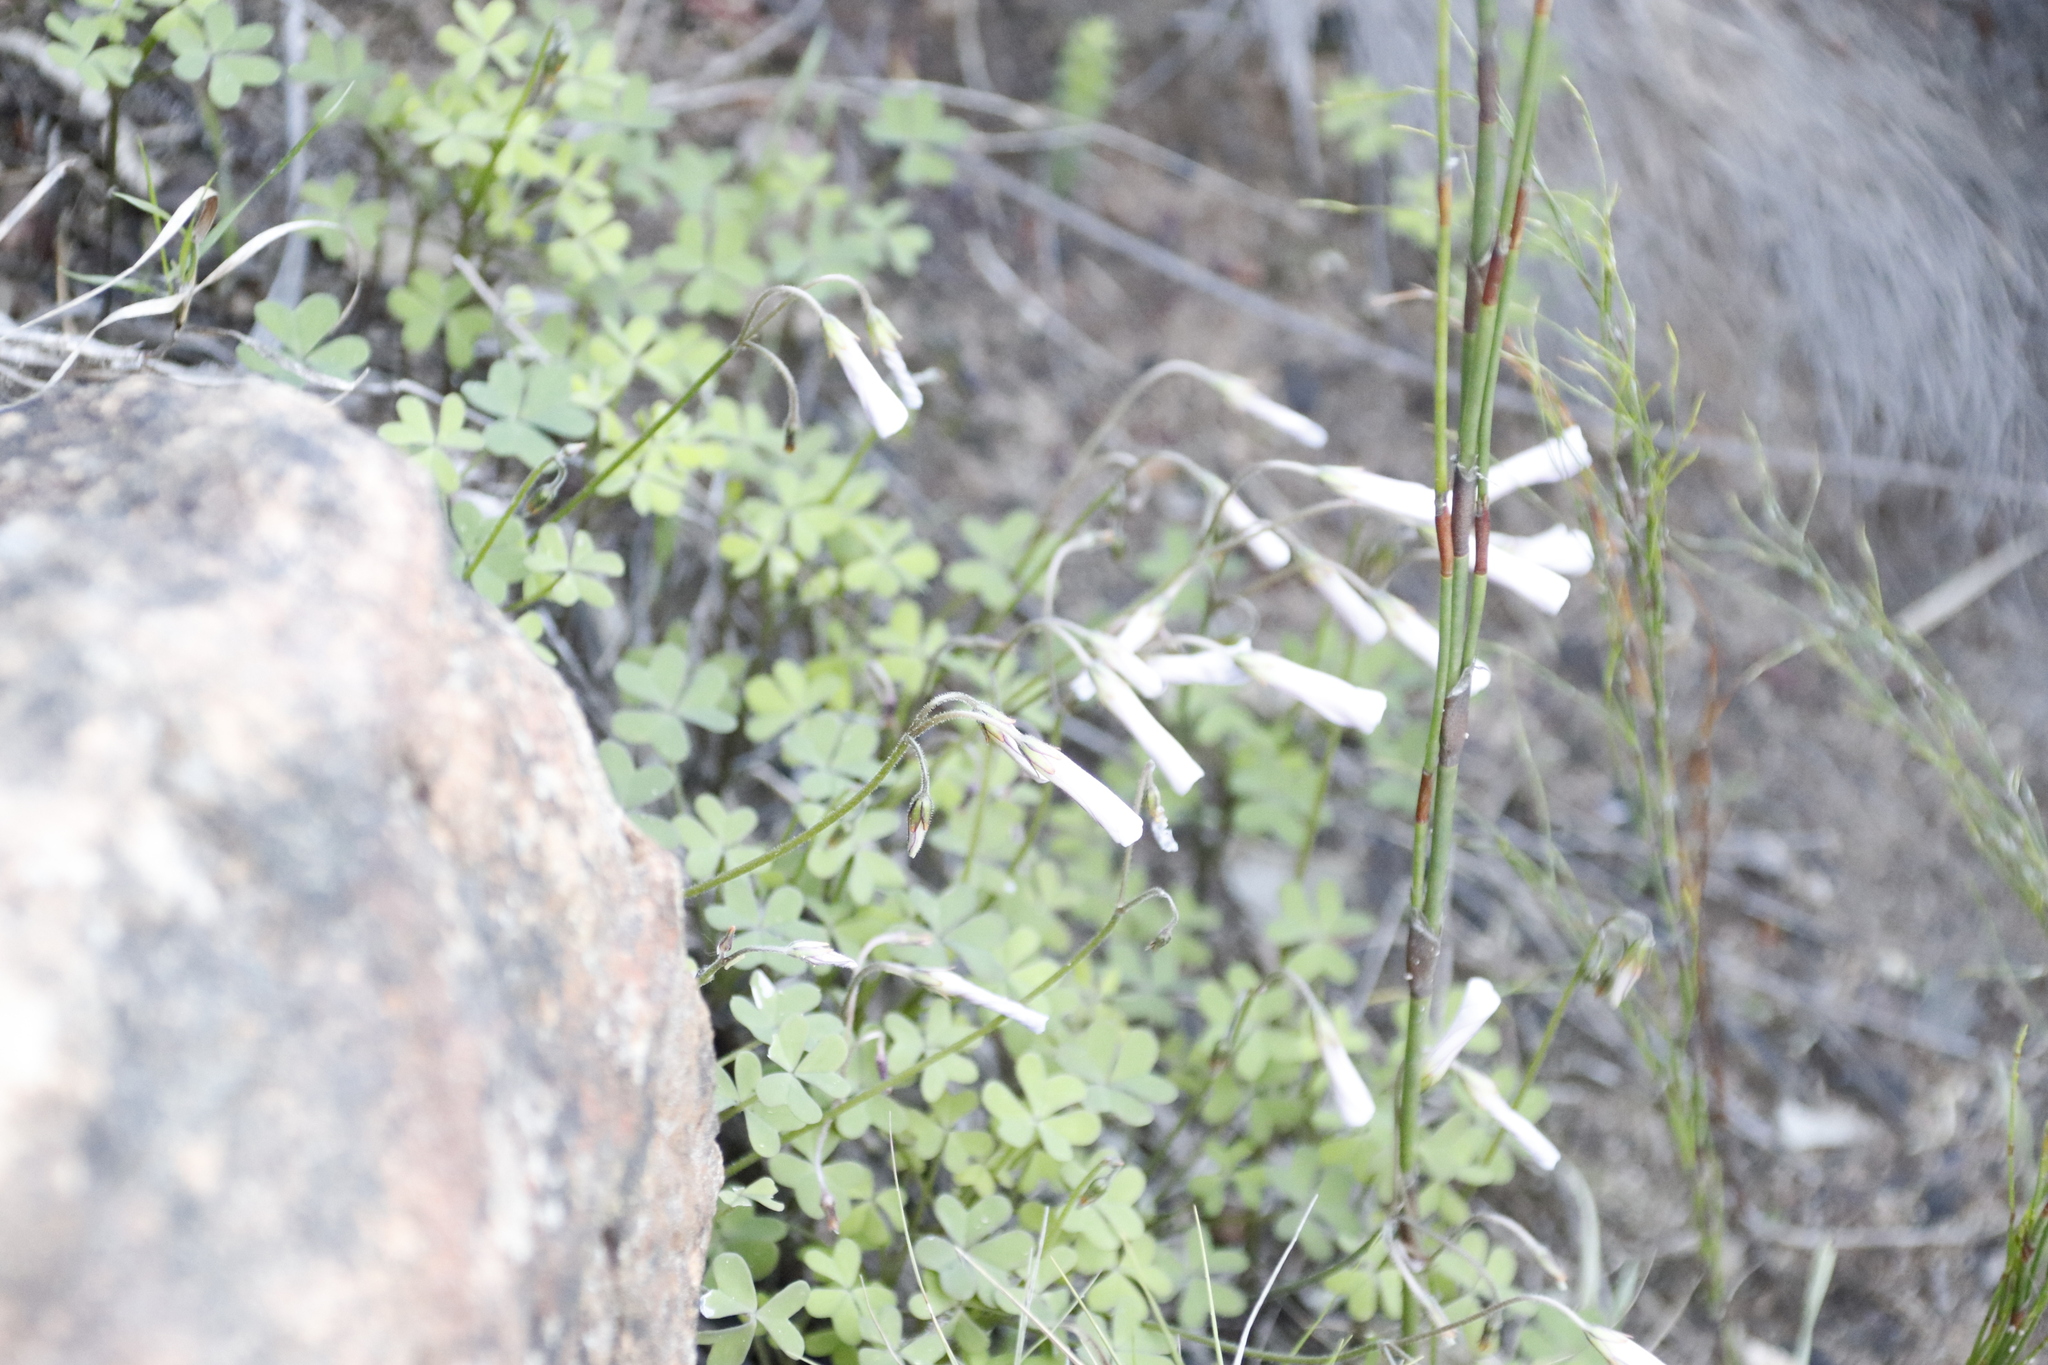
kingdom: Plantae
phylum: Tracheophyta
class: Magnoliopsida
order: Oxalidales
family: Oxalidaceae
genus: Oxalis
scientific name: Oxalis
